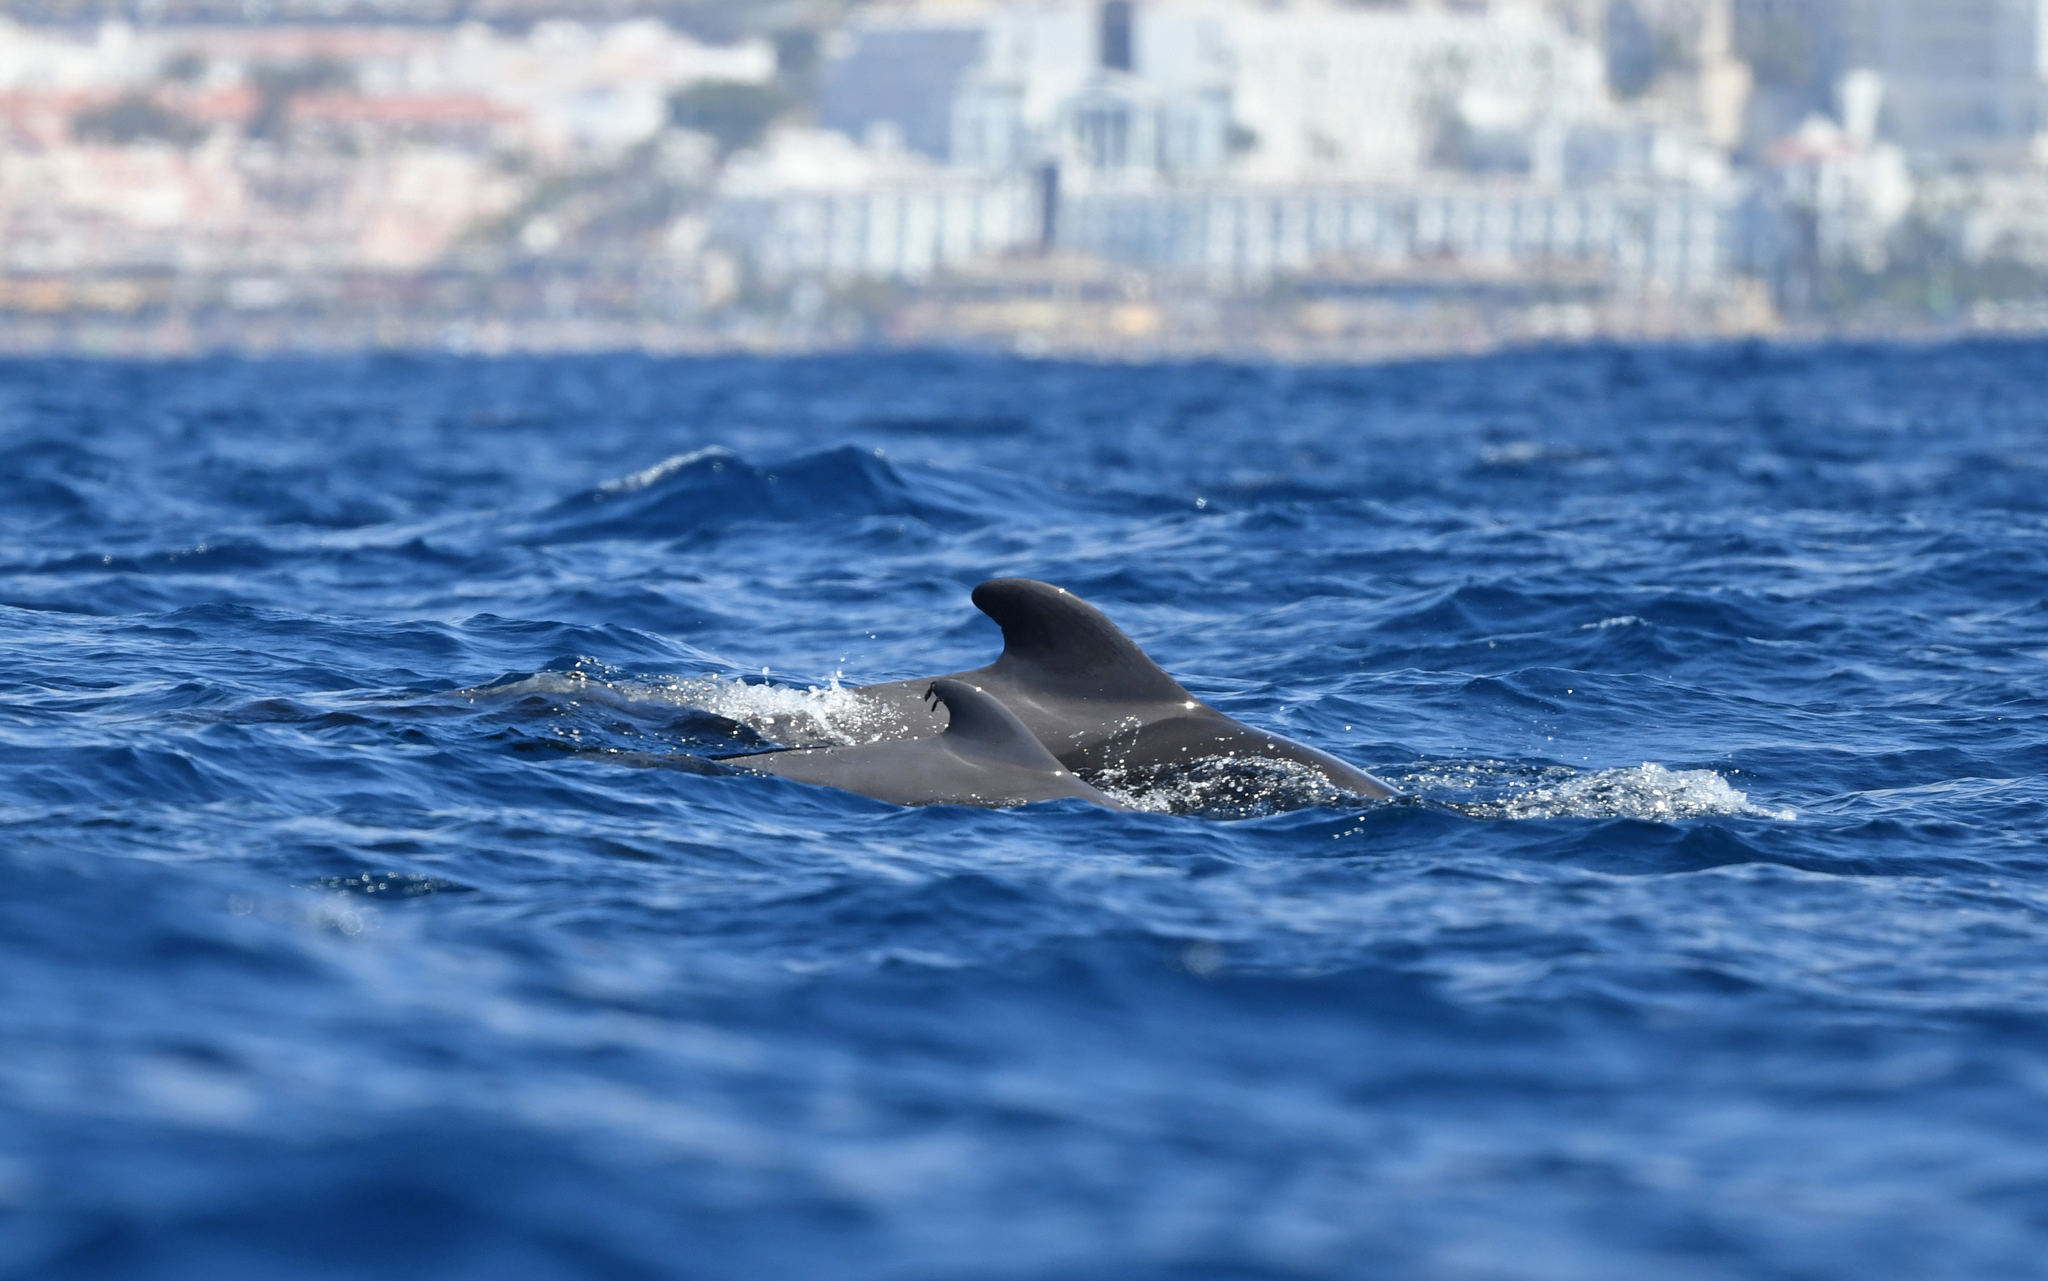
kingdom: Animalia
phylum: Chordata
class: Mammalia
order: Cetacea
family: Delphinidae
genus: Globicephala
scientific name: Globicephala macrorhynchus
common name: Short-finned pilot whale
